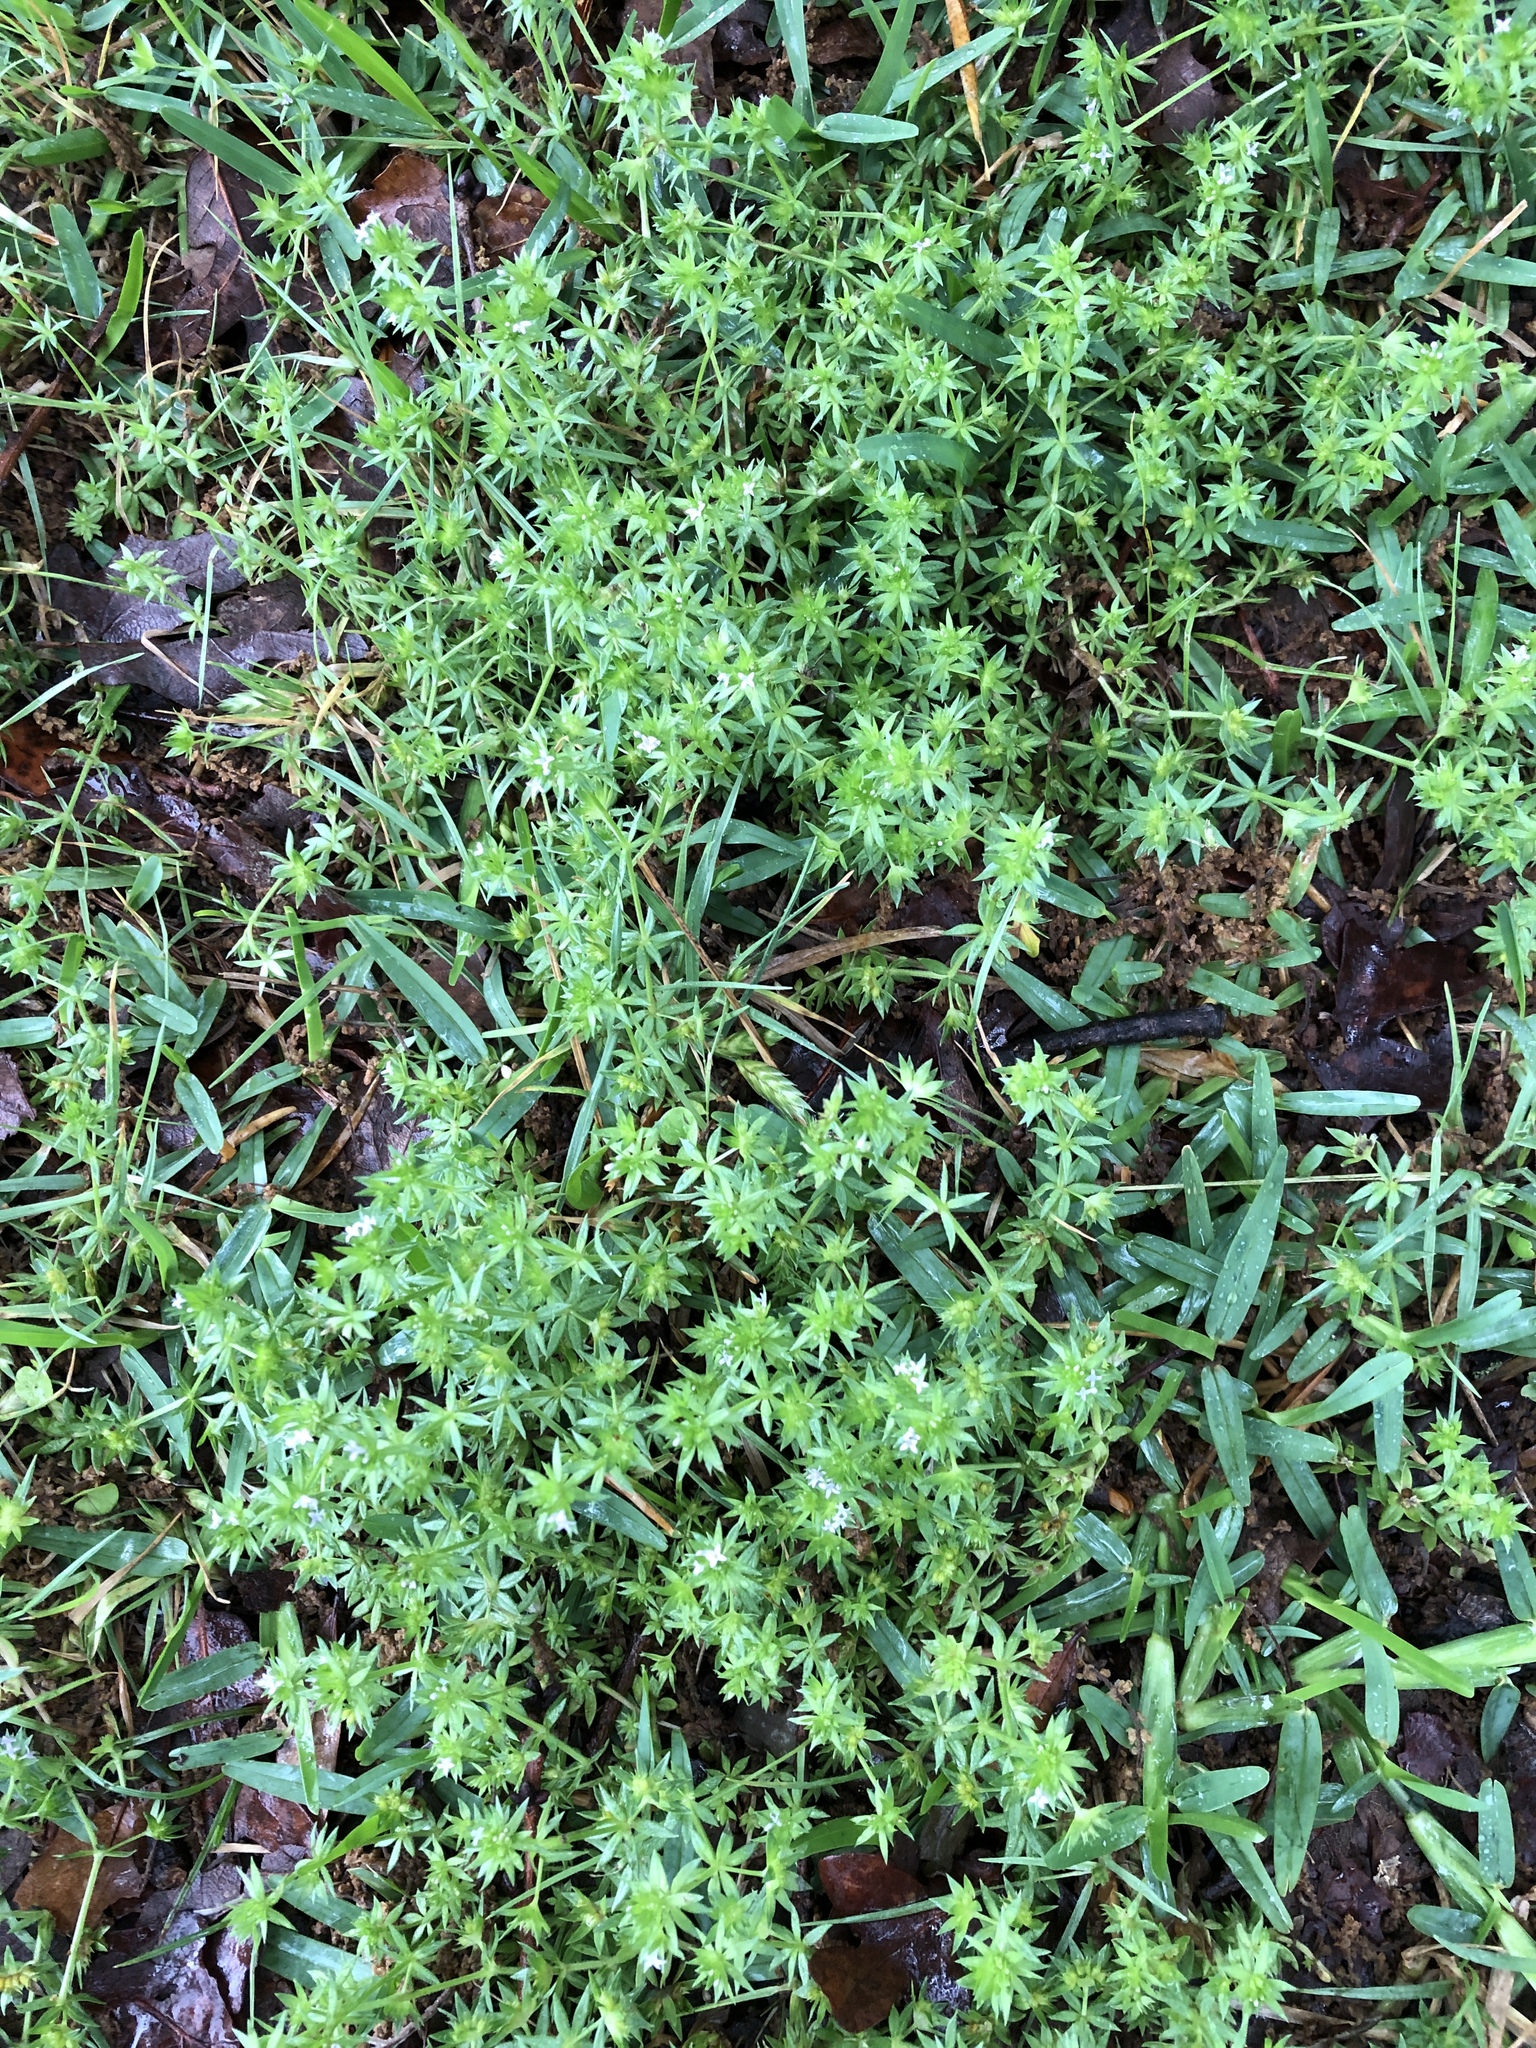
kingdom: Plantae
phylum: Tracheophyta
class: Magnoliopsida
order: Gentianales
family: Rubiaceae
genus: Sherardia
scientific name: Sherardia arvensis
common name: Field madder
